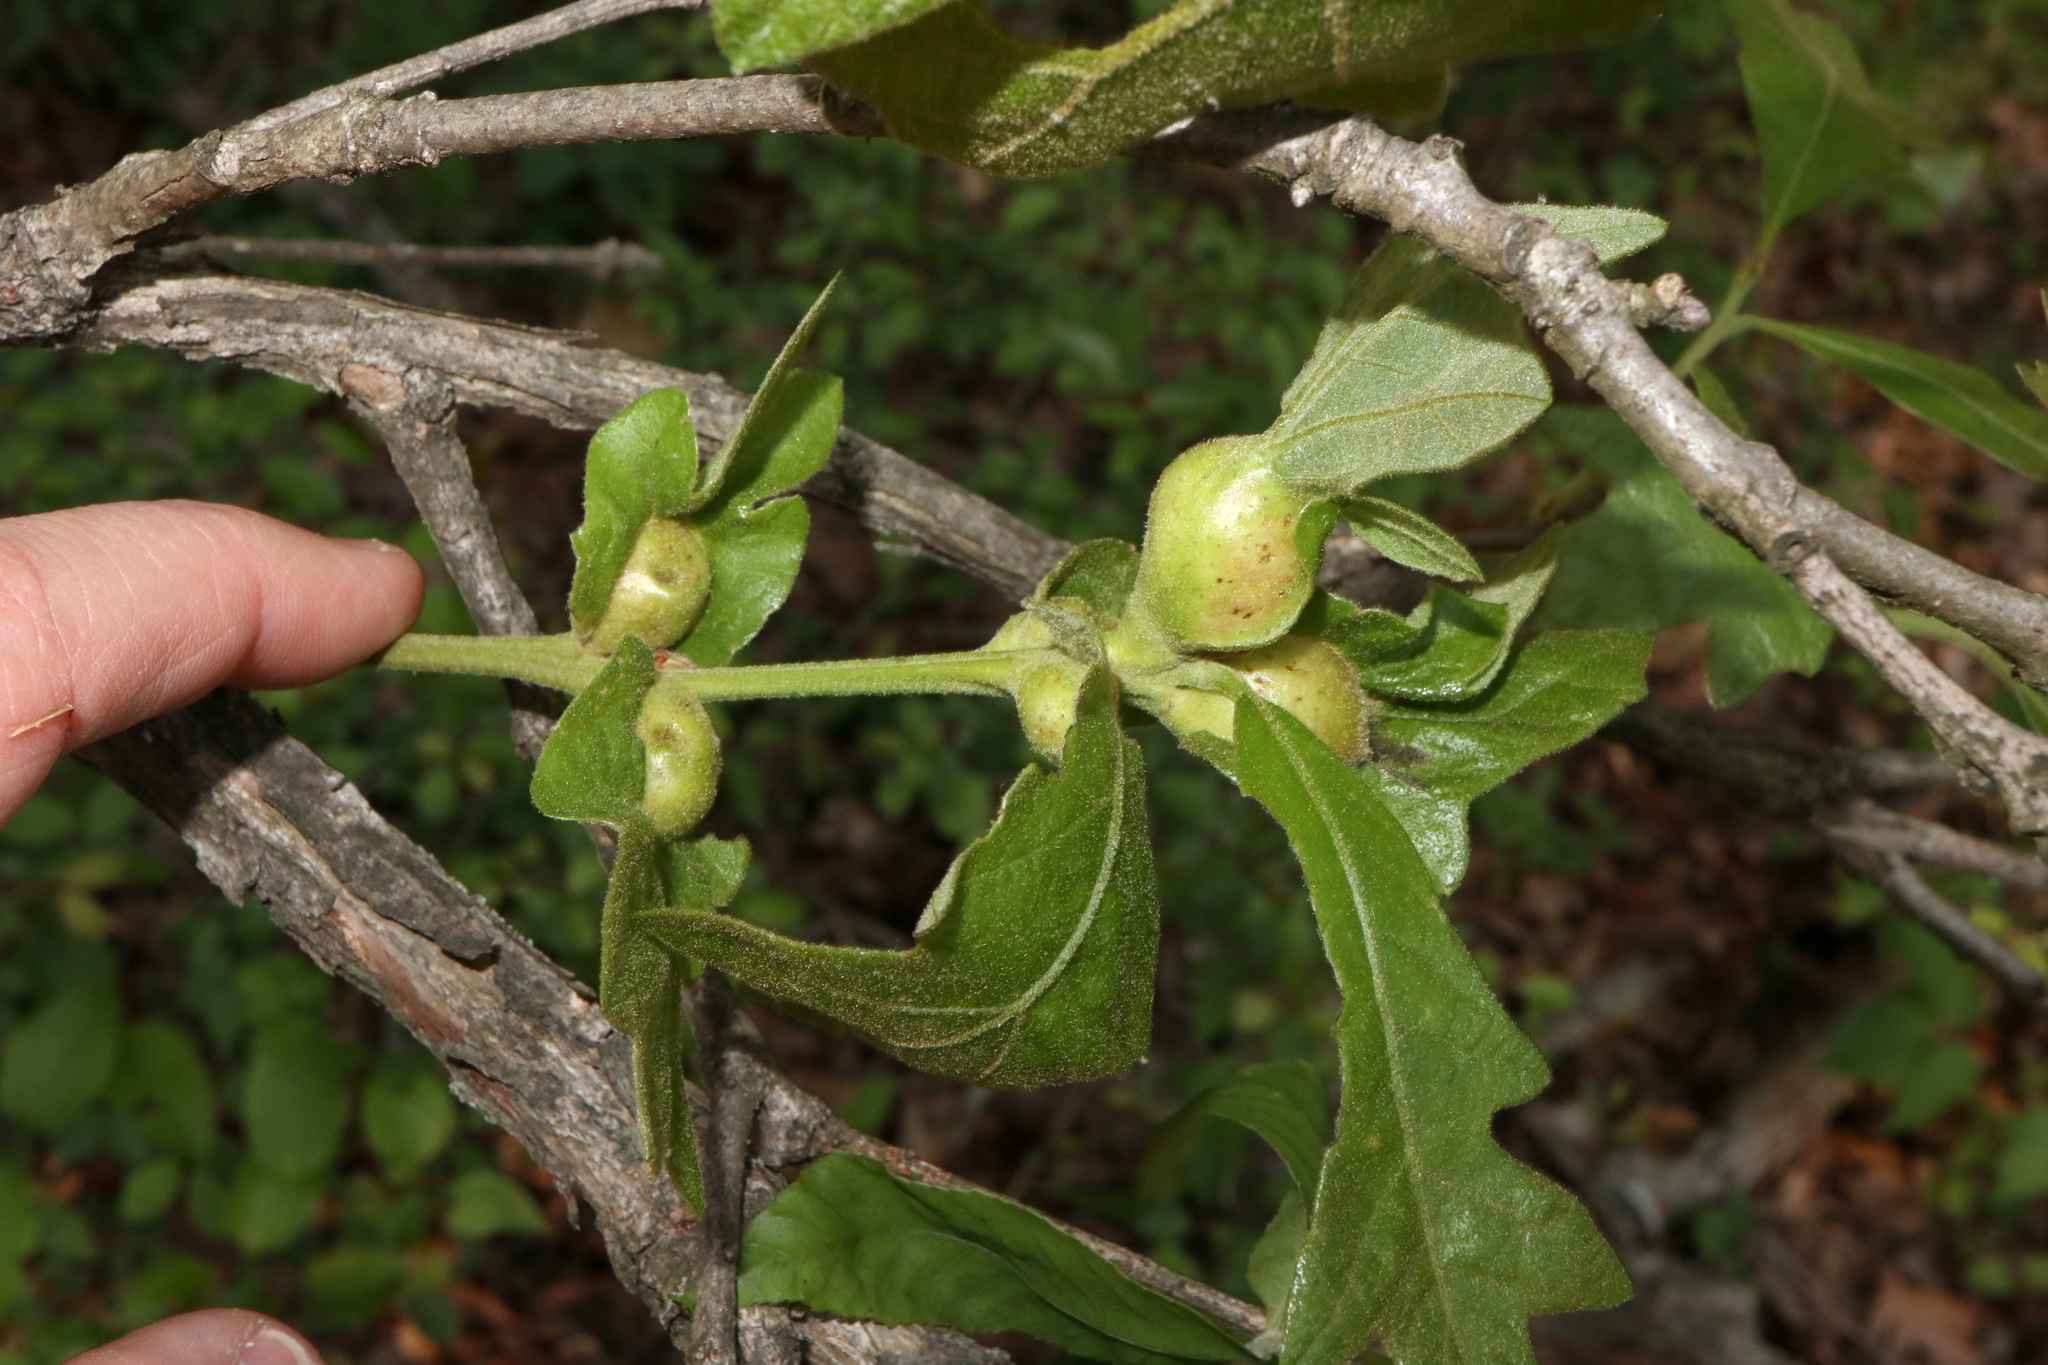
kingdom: Animalia
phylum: Arthropoda
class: Insecta
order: Hymenoptera
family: Cynipidae
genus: Andricus
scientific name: Andricus
